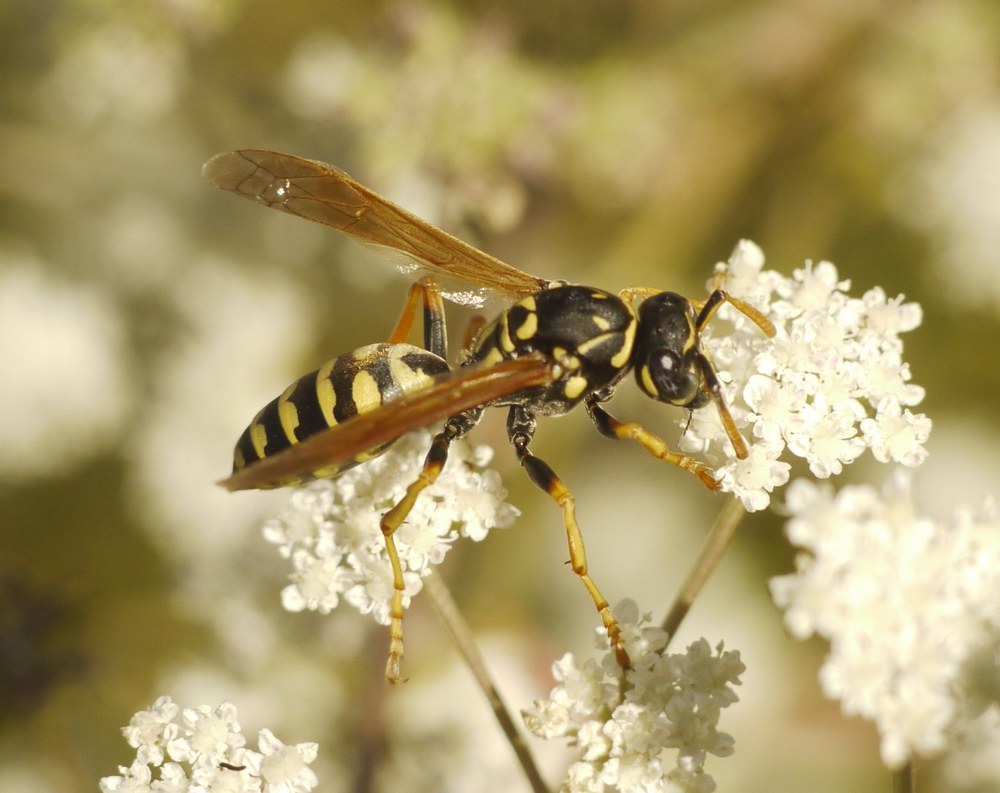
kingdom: Animalia
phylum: Arthropoda
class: Insecta
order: Hymenoptera
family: Eumenidae
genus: Polistes
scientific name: Polistes dominula
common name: Paper wasp
